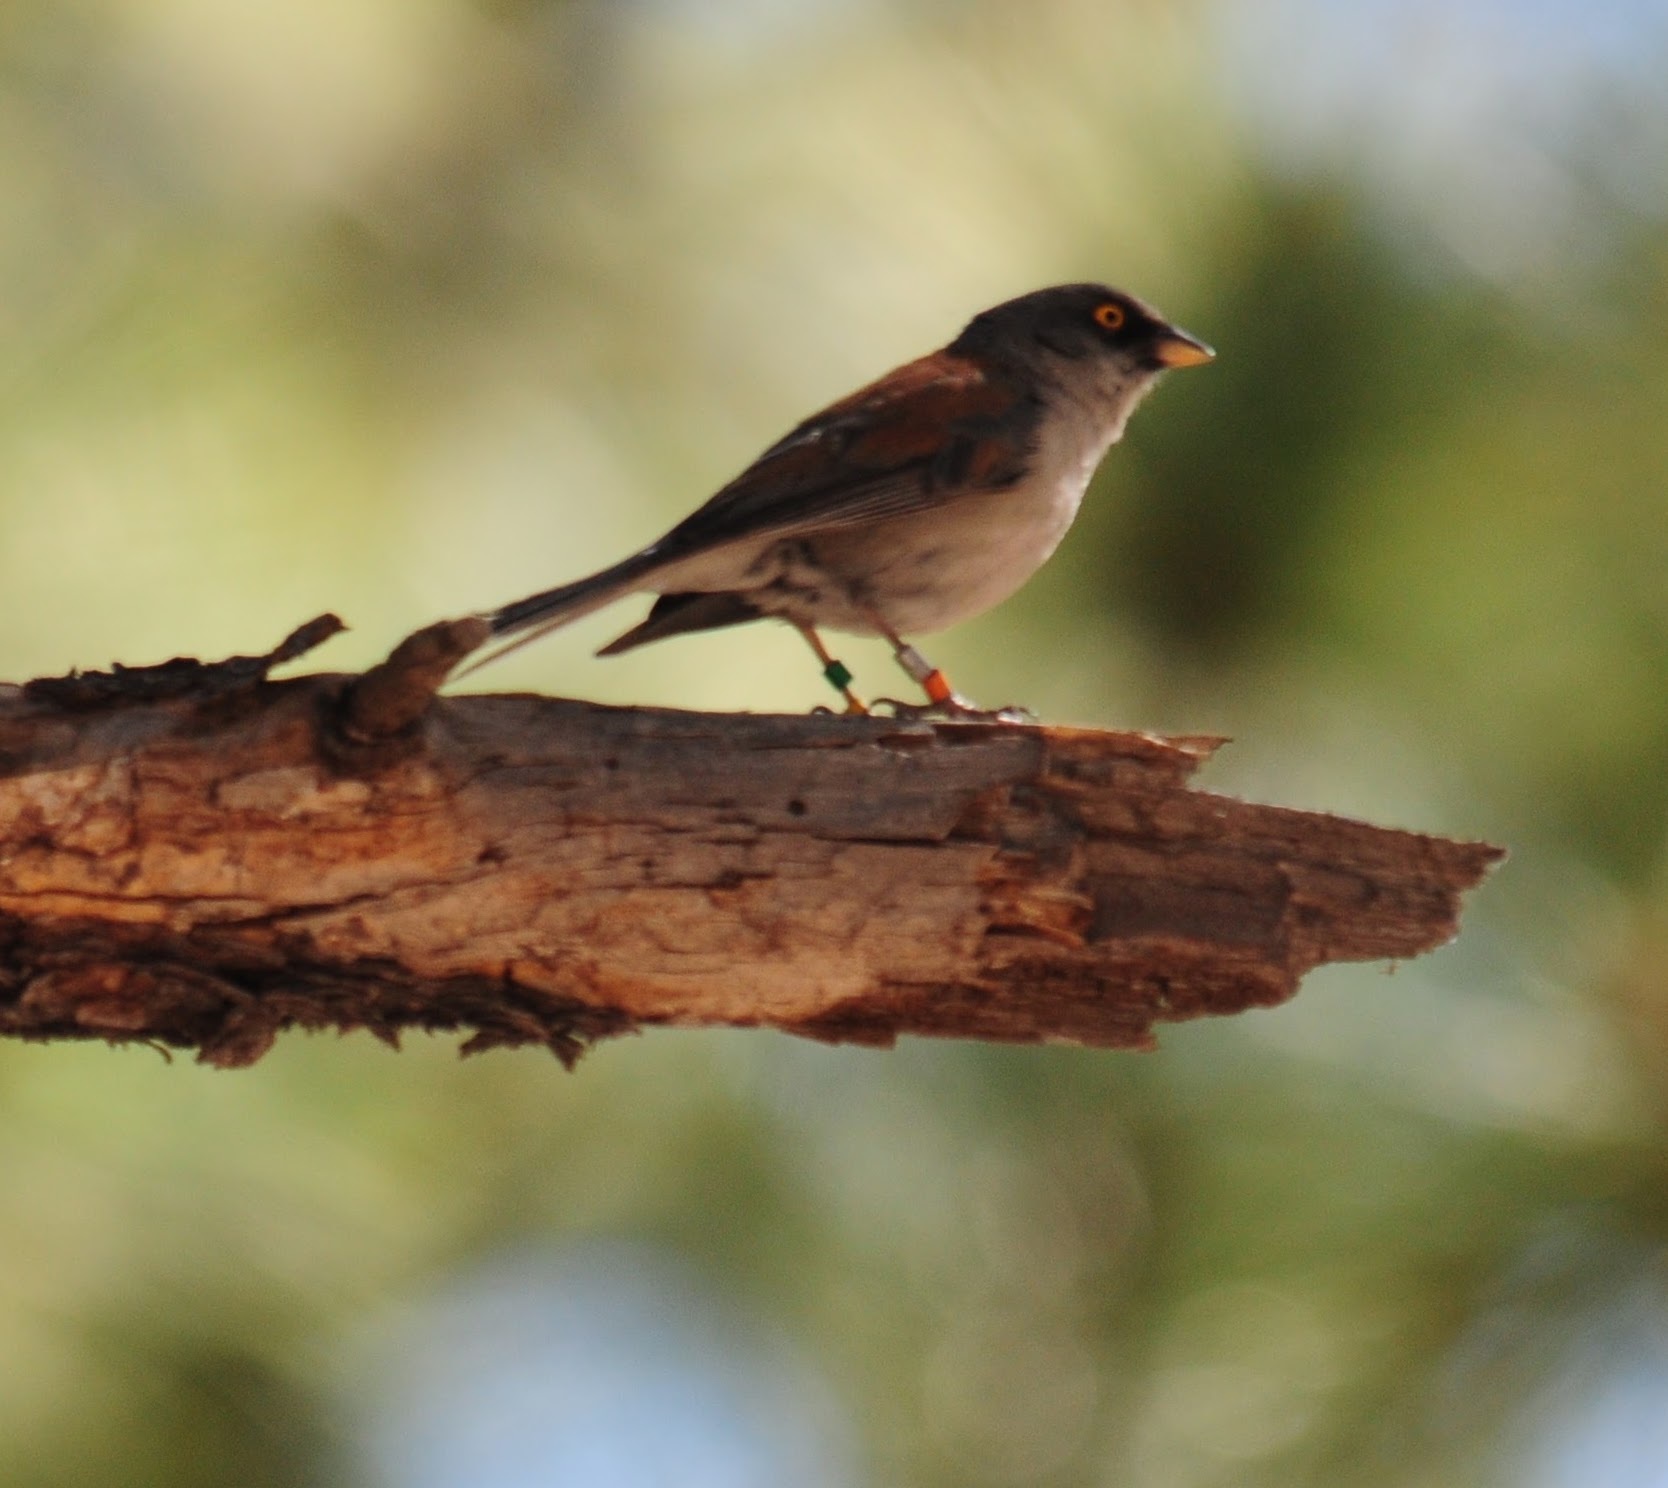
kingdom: Animalia
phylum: Chordata
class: Aves
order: Passeriformes
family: Passerellidae
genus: Junco
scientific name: Junco phaeonotus
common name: Yellow-eyed junco
